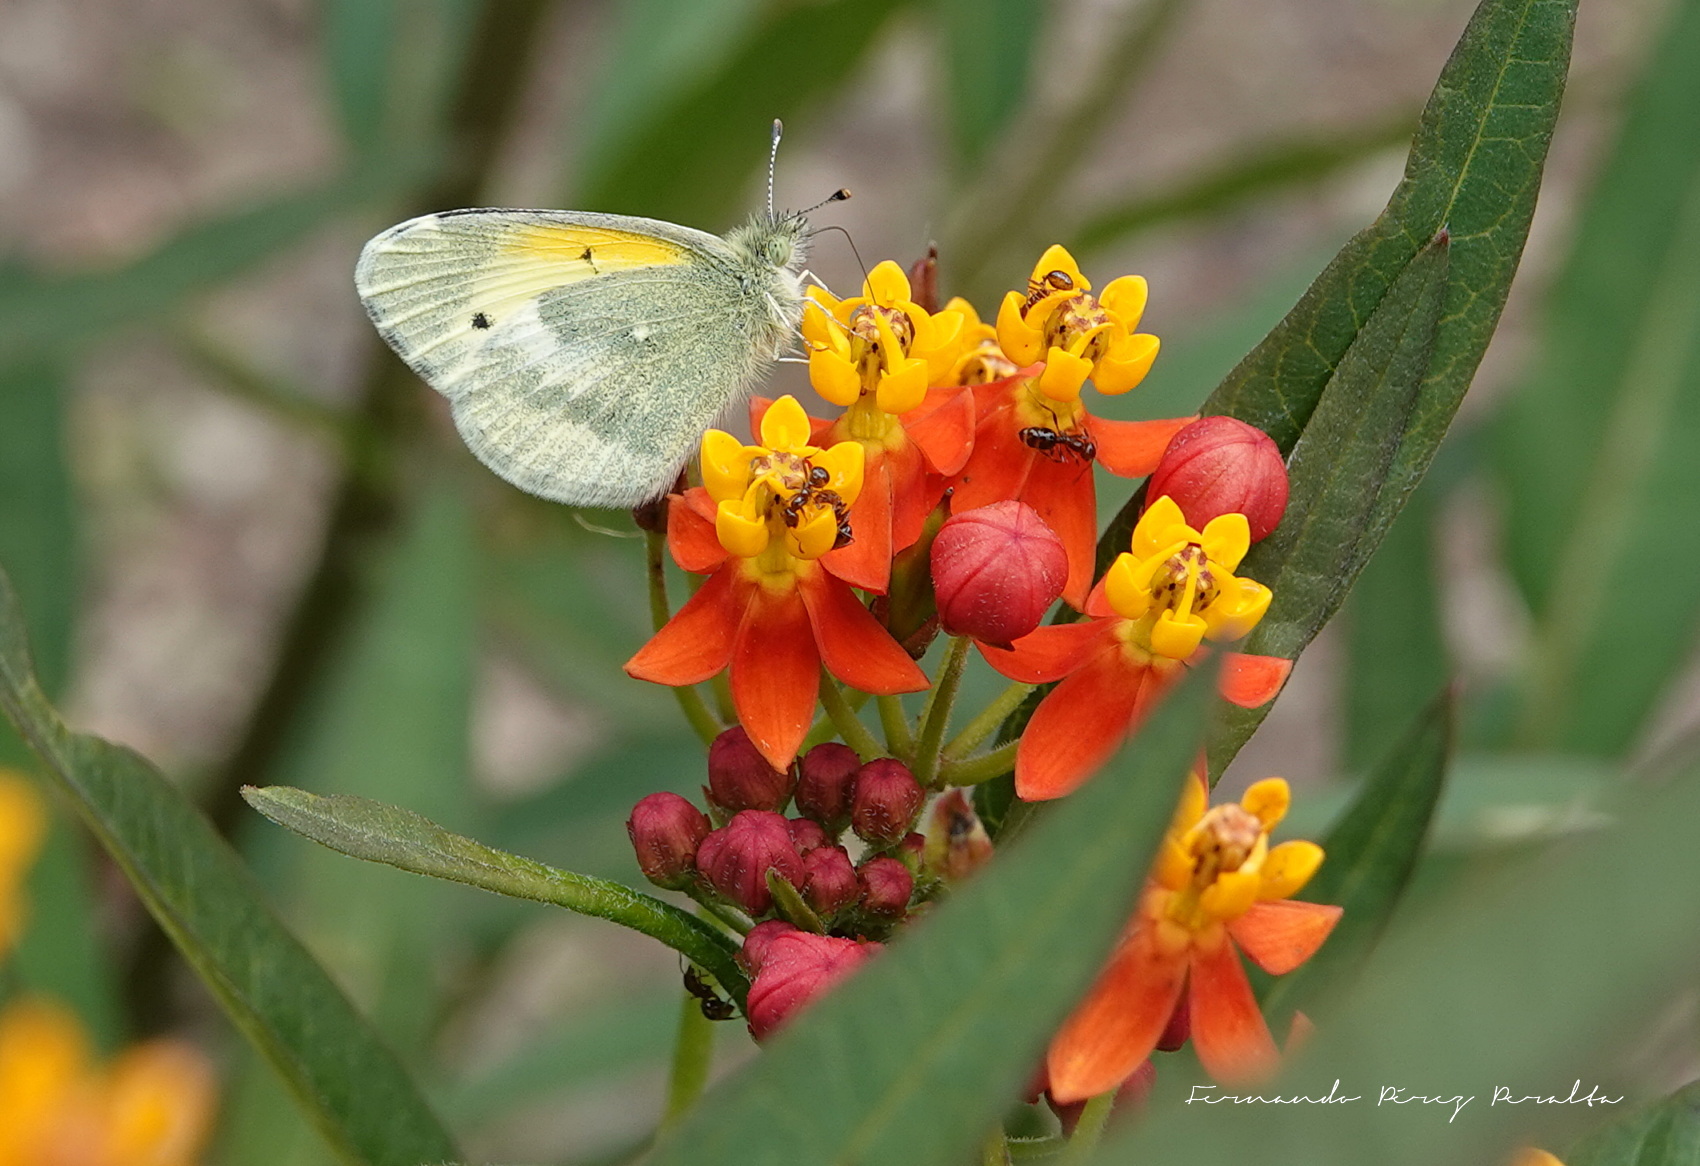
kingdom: Animalia
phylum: Arthropoda
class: Insecta
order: Lepidoptera
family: Pieridae
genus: Nathalis
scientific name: Nathalis iole
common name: Dainty sulphur
